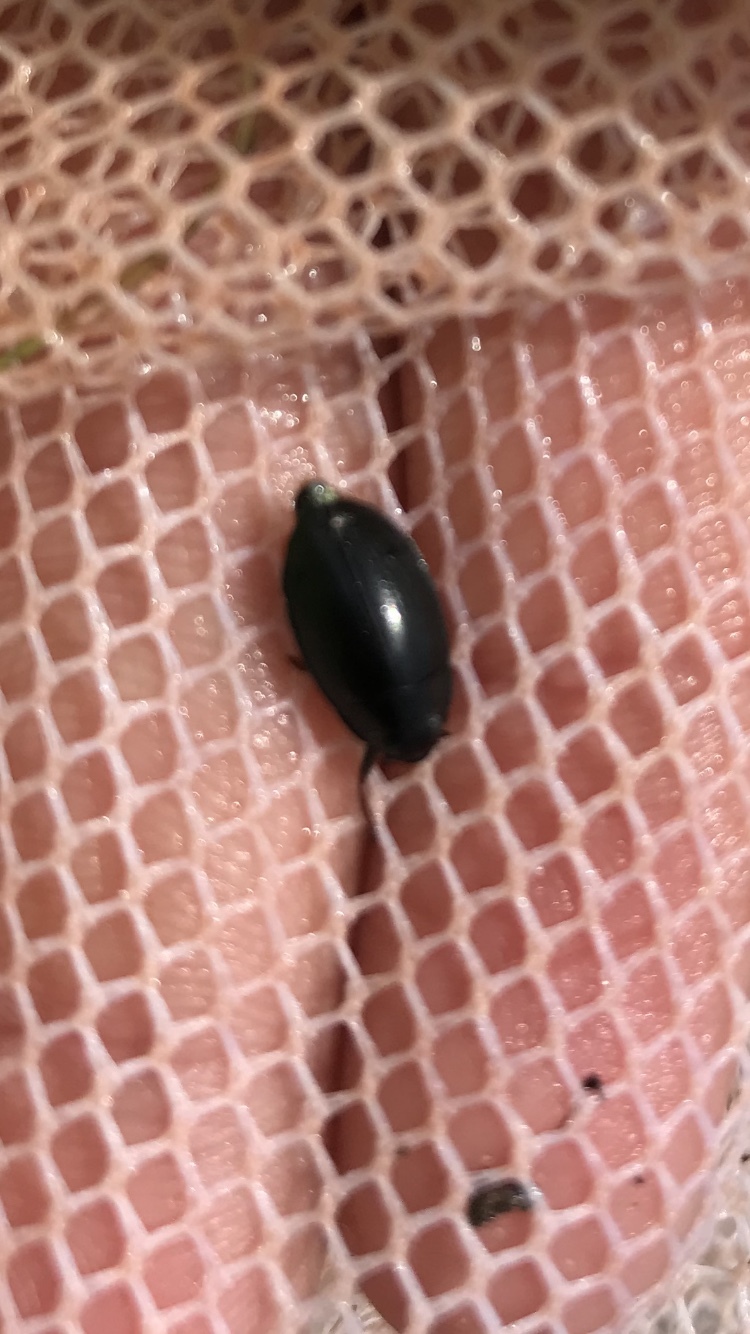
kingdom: Animalia
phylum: Arthropoda
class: Insecta
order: Coleoptera
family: Gyrinidae
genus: Dineutus
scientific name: Dineutus
